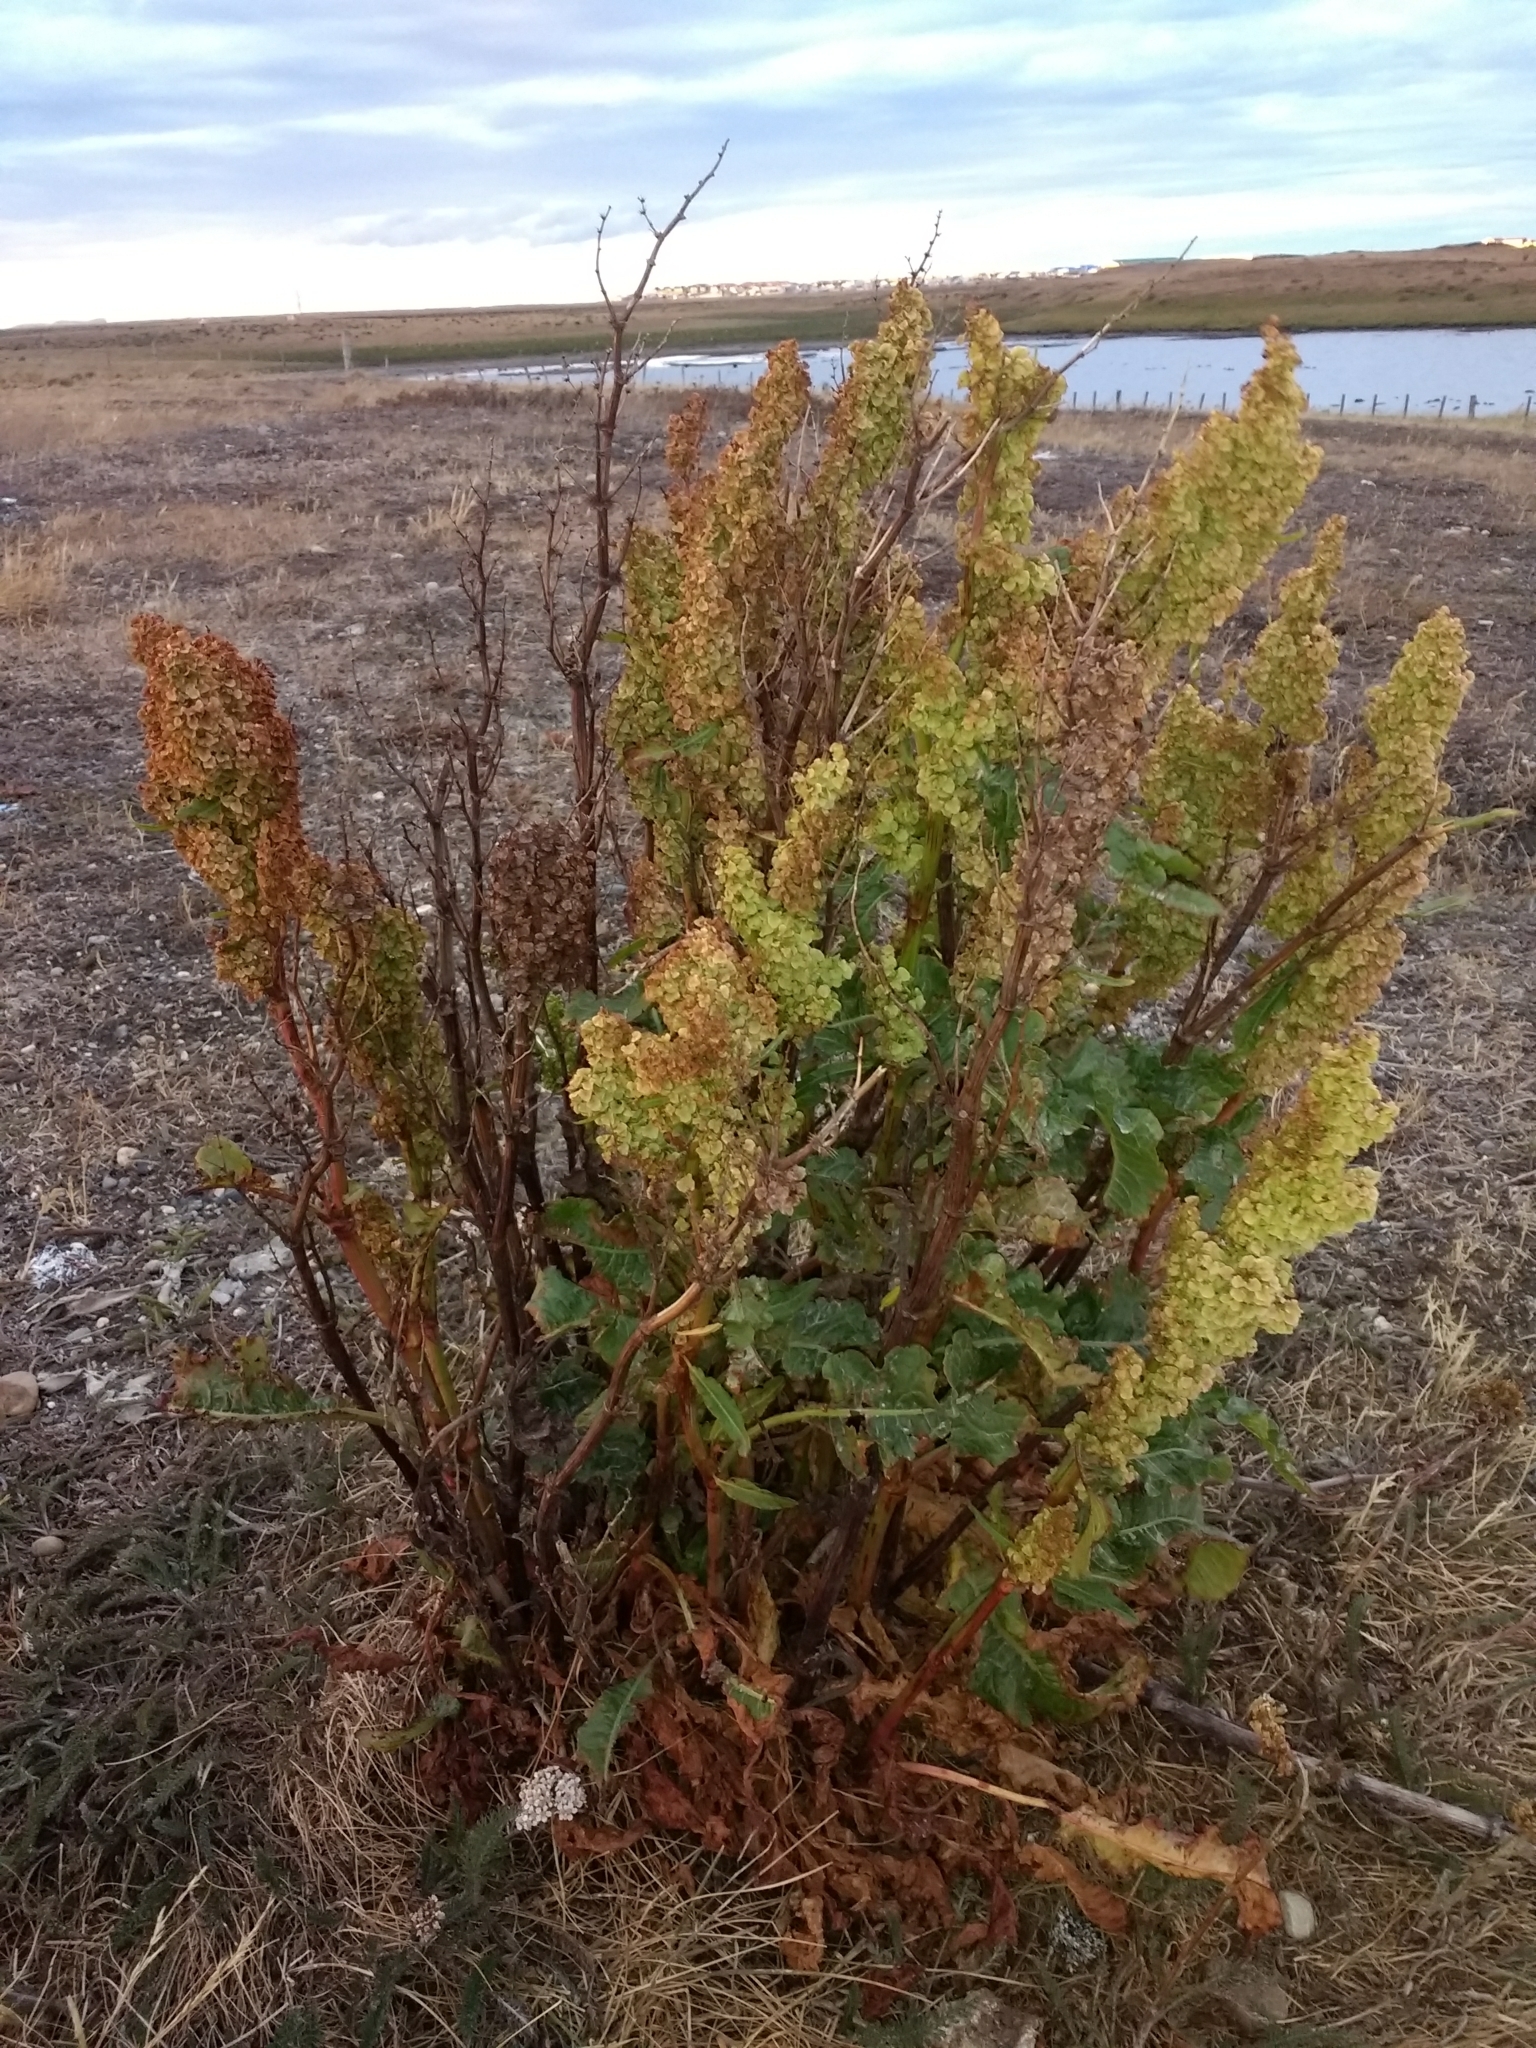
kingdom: Plantae
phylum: Tracheophyta
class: Magnoliopsida
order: Caryophyllales
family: Polygonaceae
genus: Rumex
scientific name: Rumex crispus
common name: Curled dock
